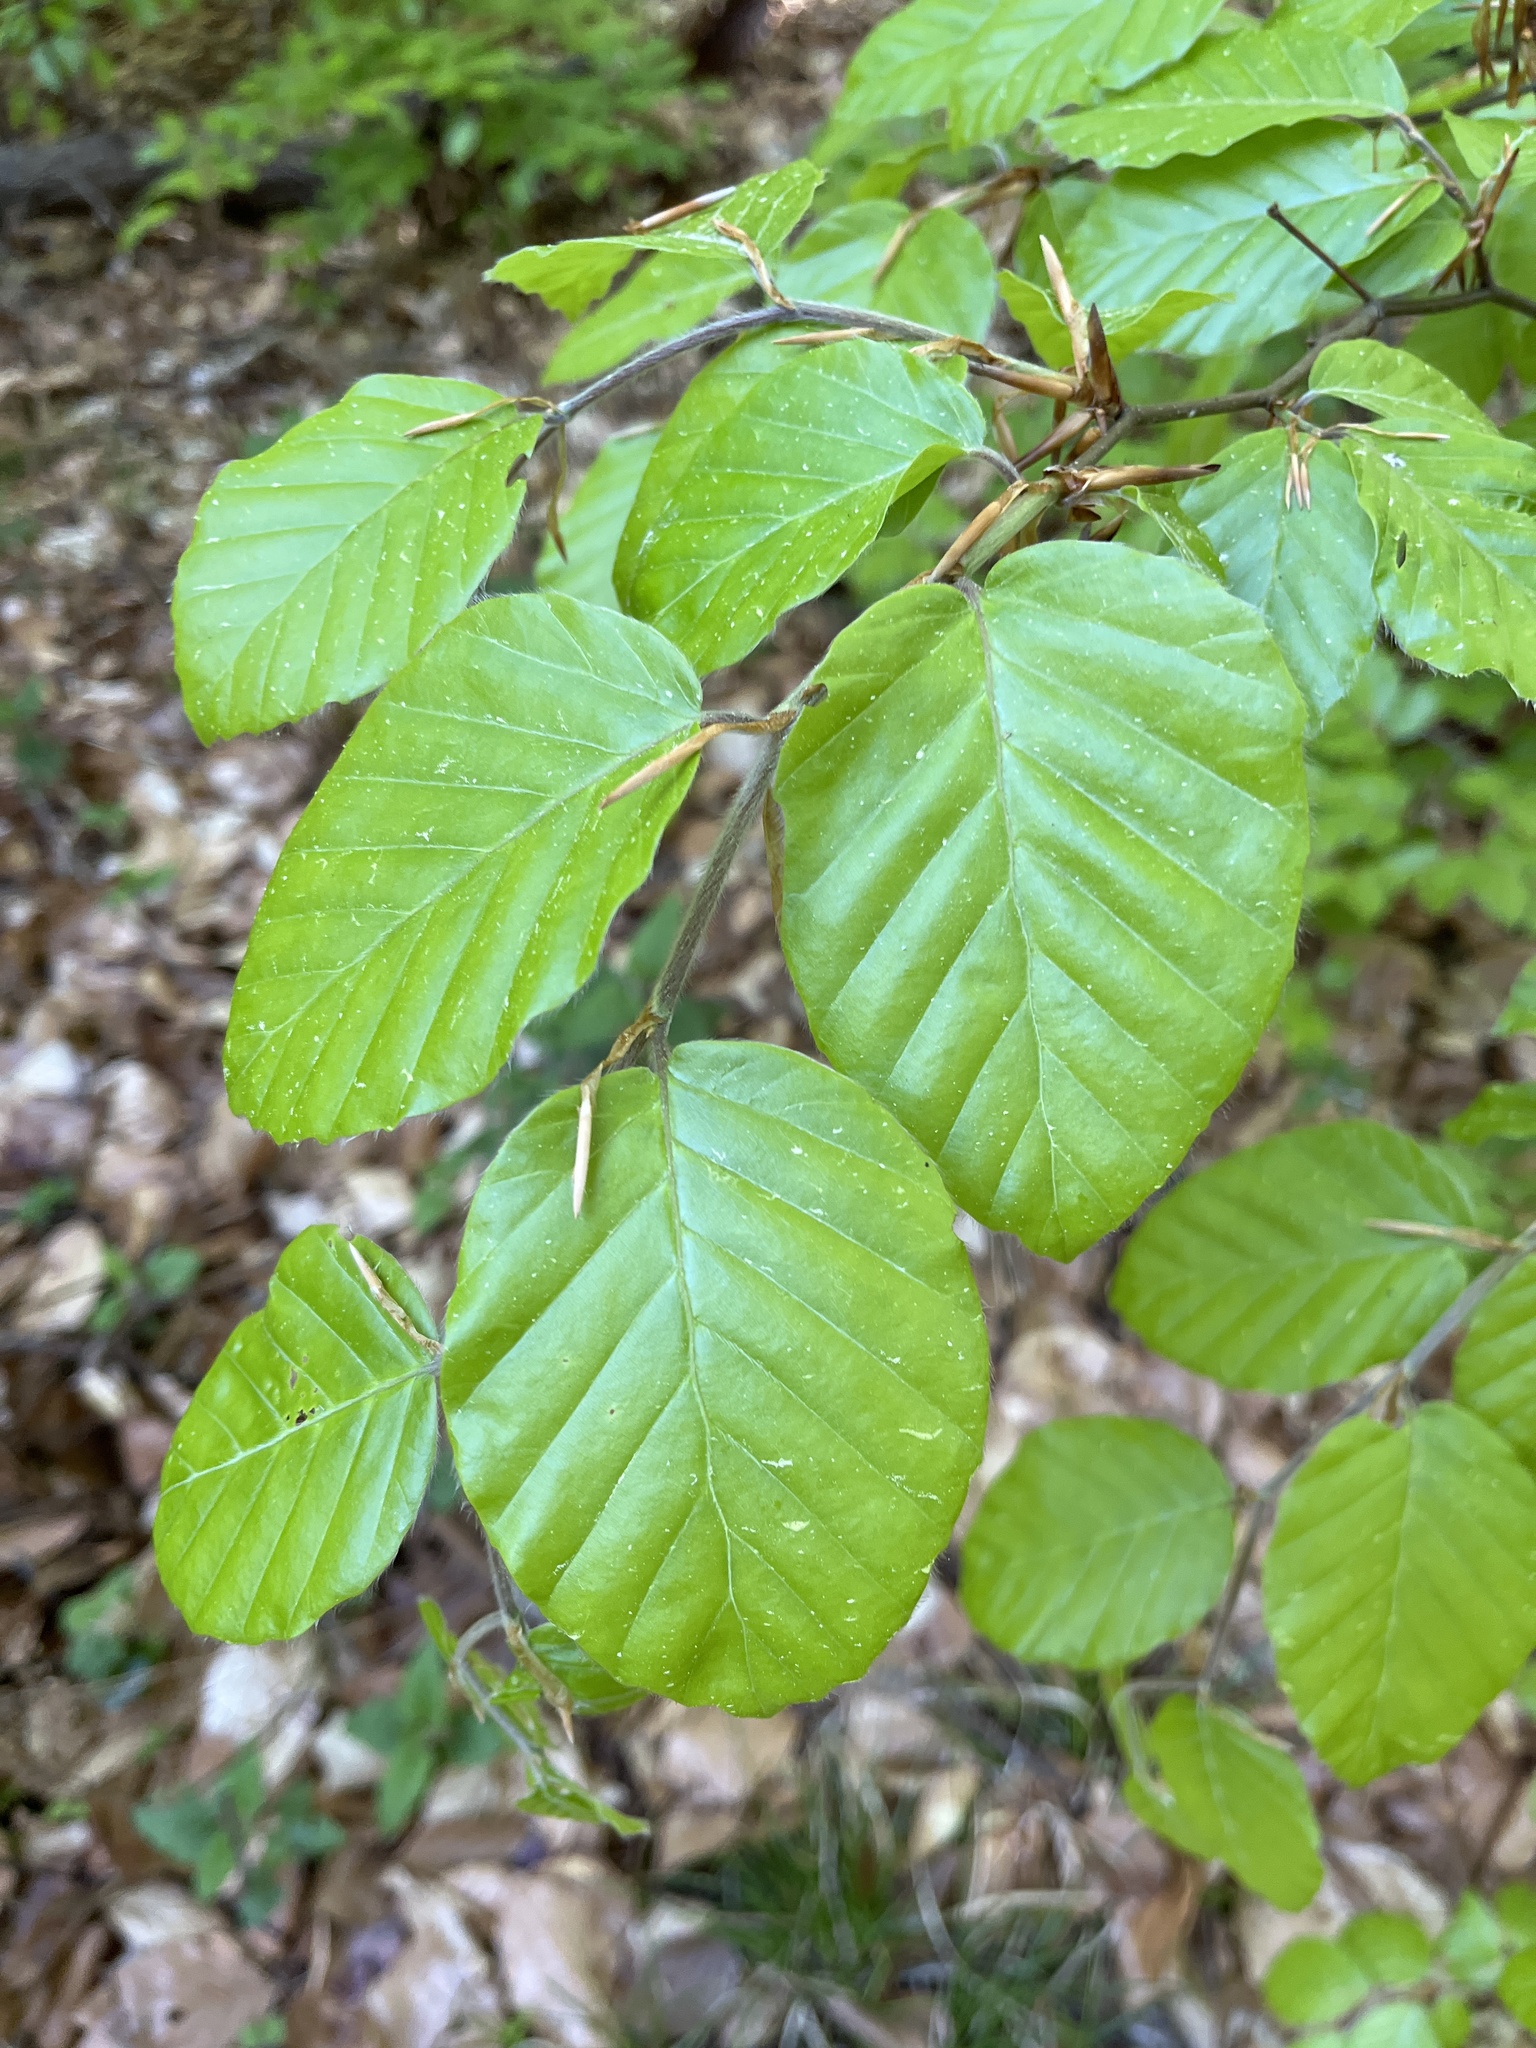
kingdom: Plantae
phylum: Tracheophyta
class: Magnoliopsida
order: Fagales
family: Fagaceae
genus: Fagus
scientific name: Fagus sylvatica
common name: Beech
